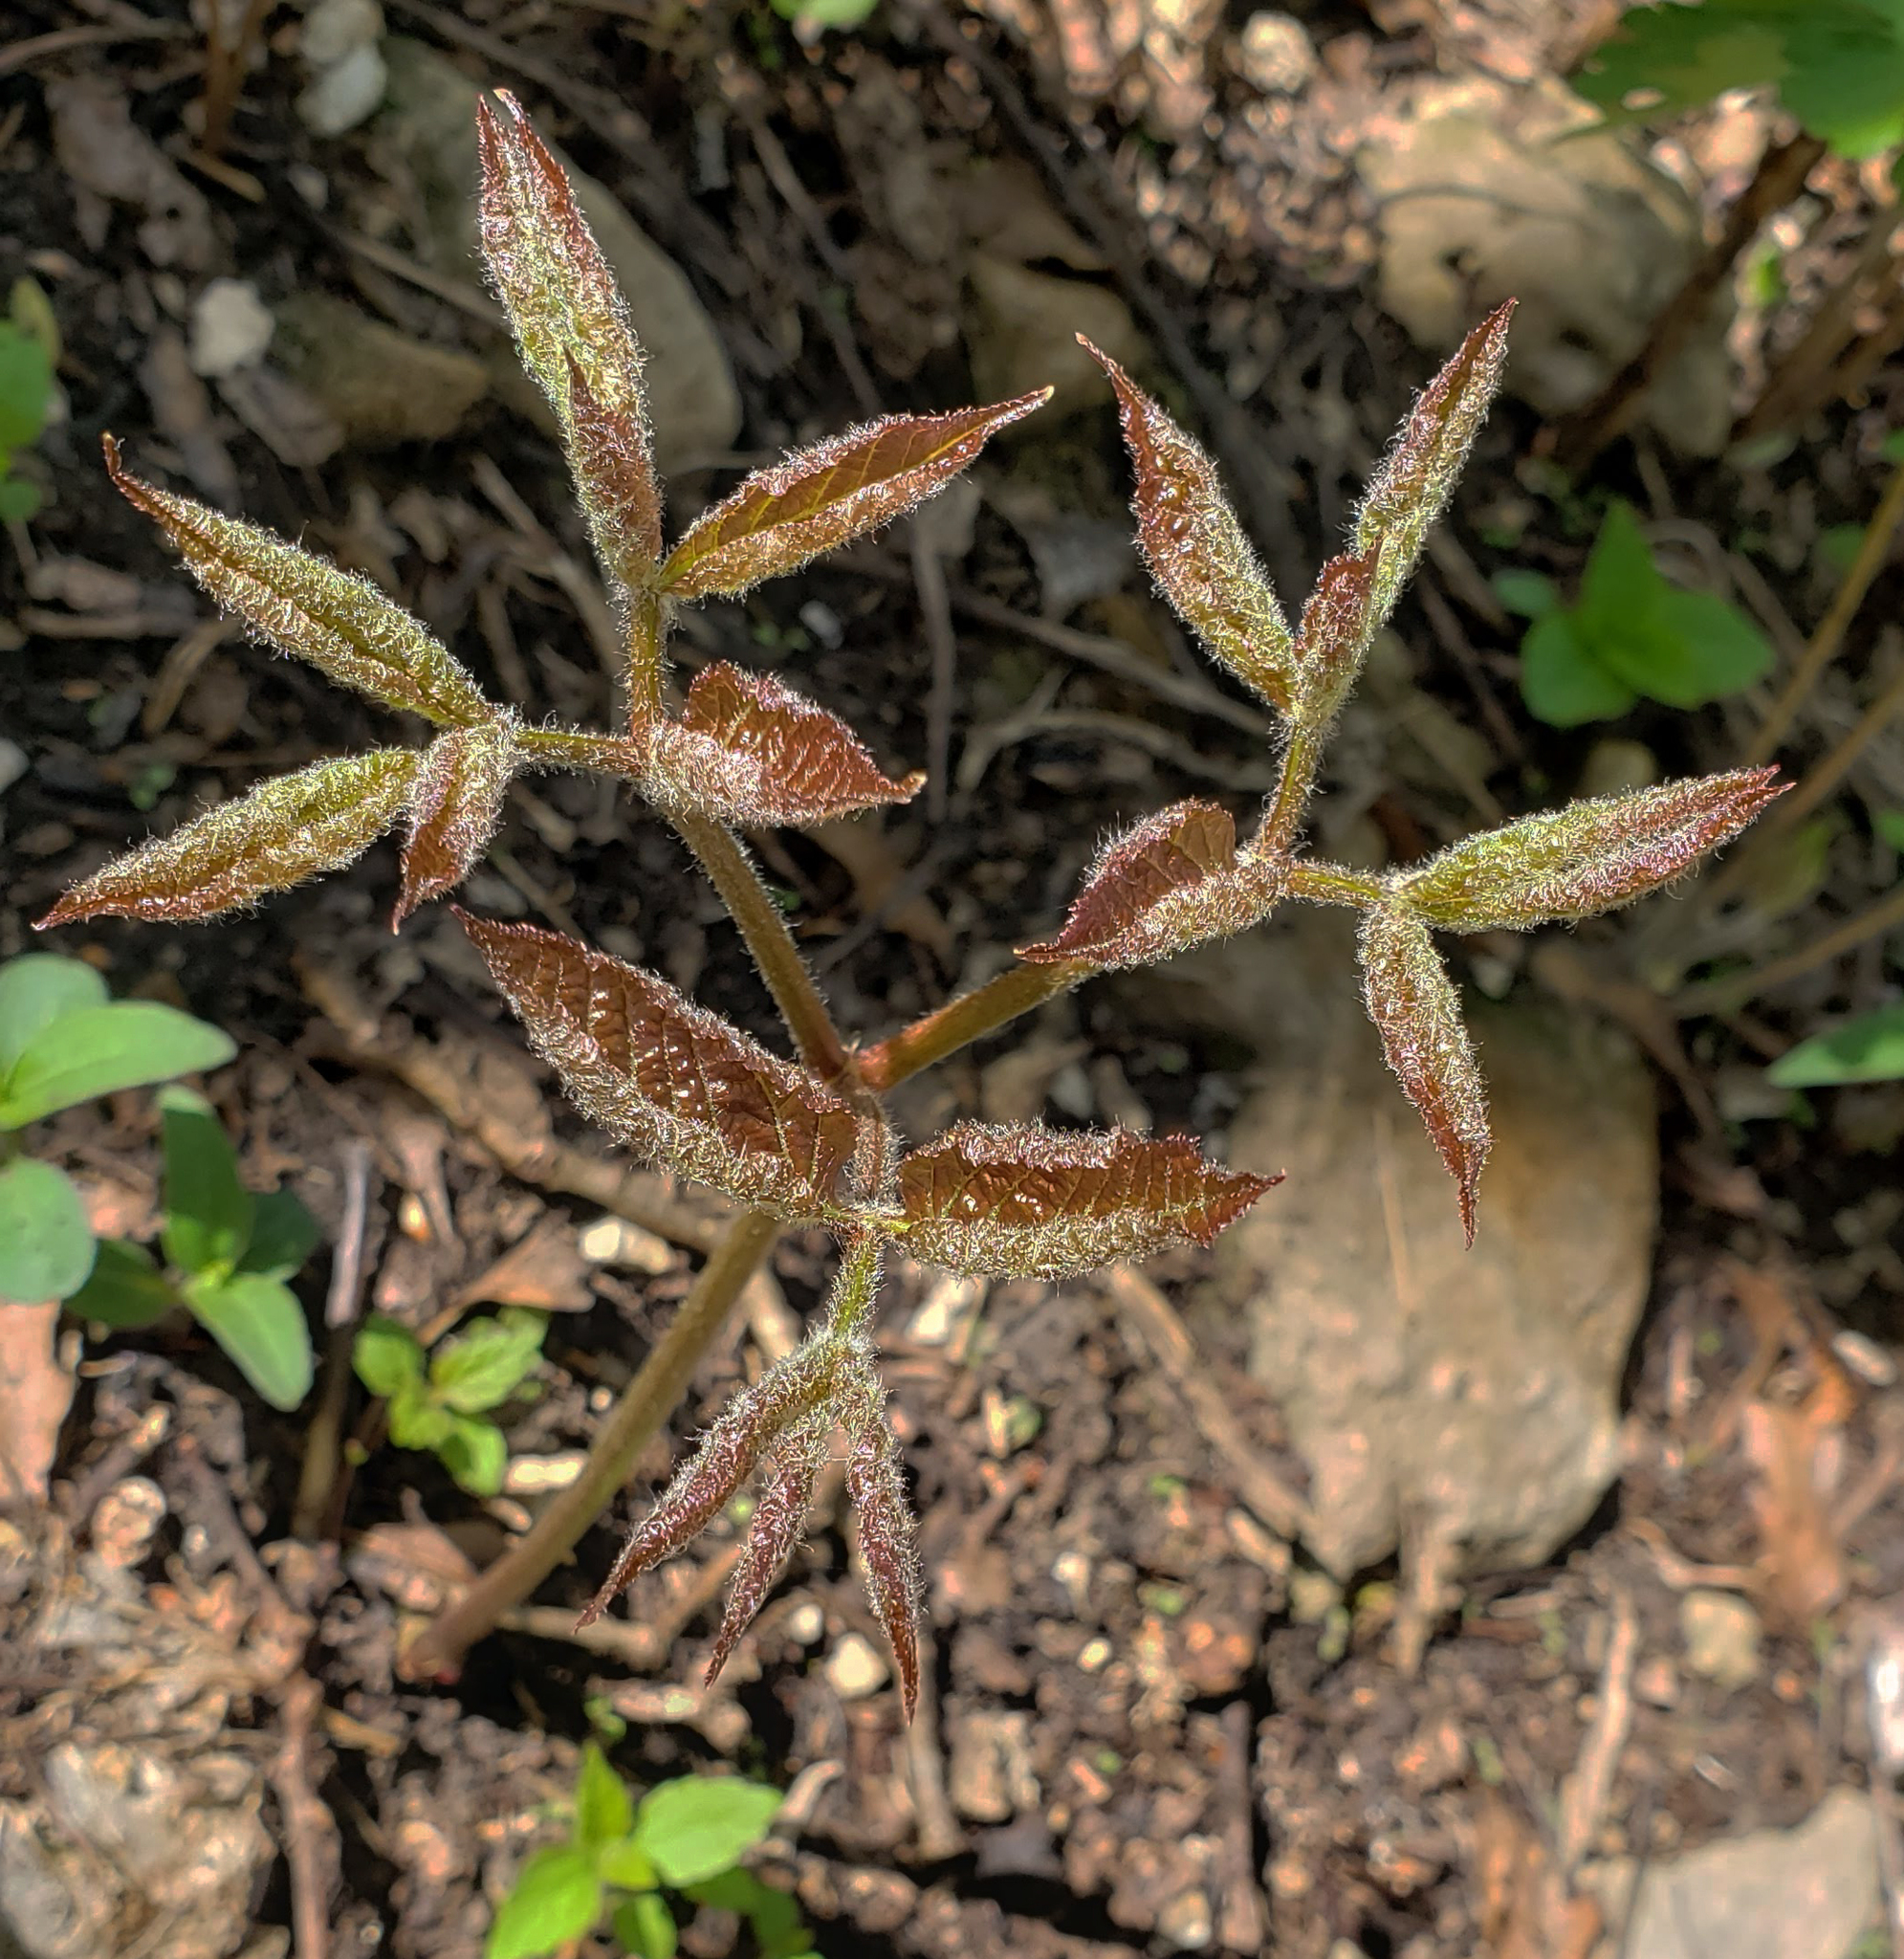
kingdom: Plantae
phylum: Tracheophyta
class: Magnoliopsida
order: Apiales
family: Araliaceae
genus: Aralia
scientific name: Aralia nudicaulis
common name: Wild sarsaparilla
